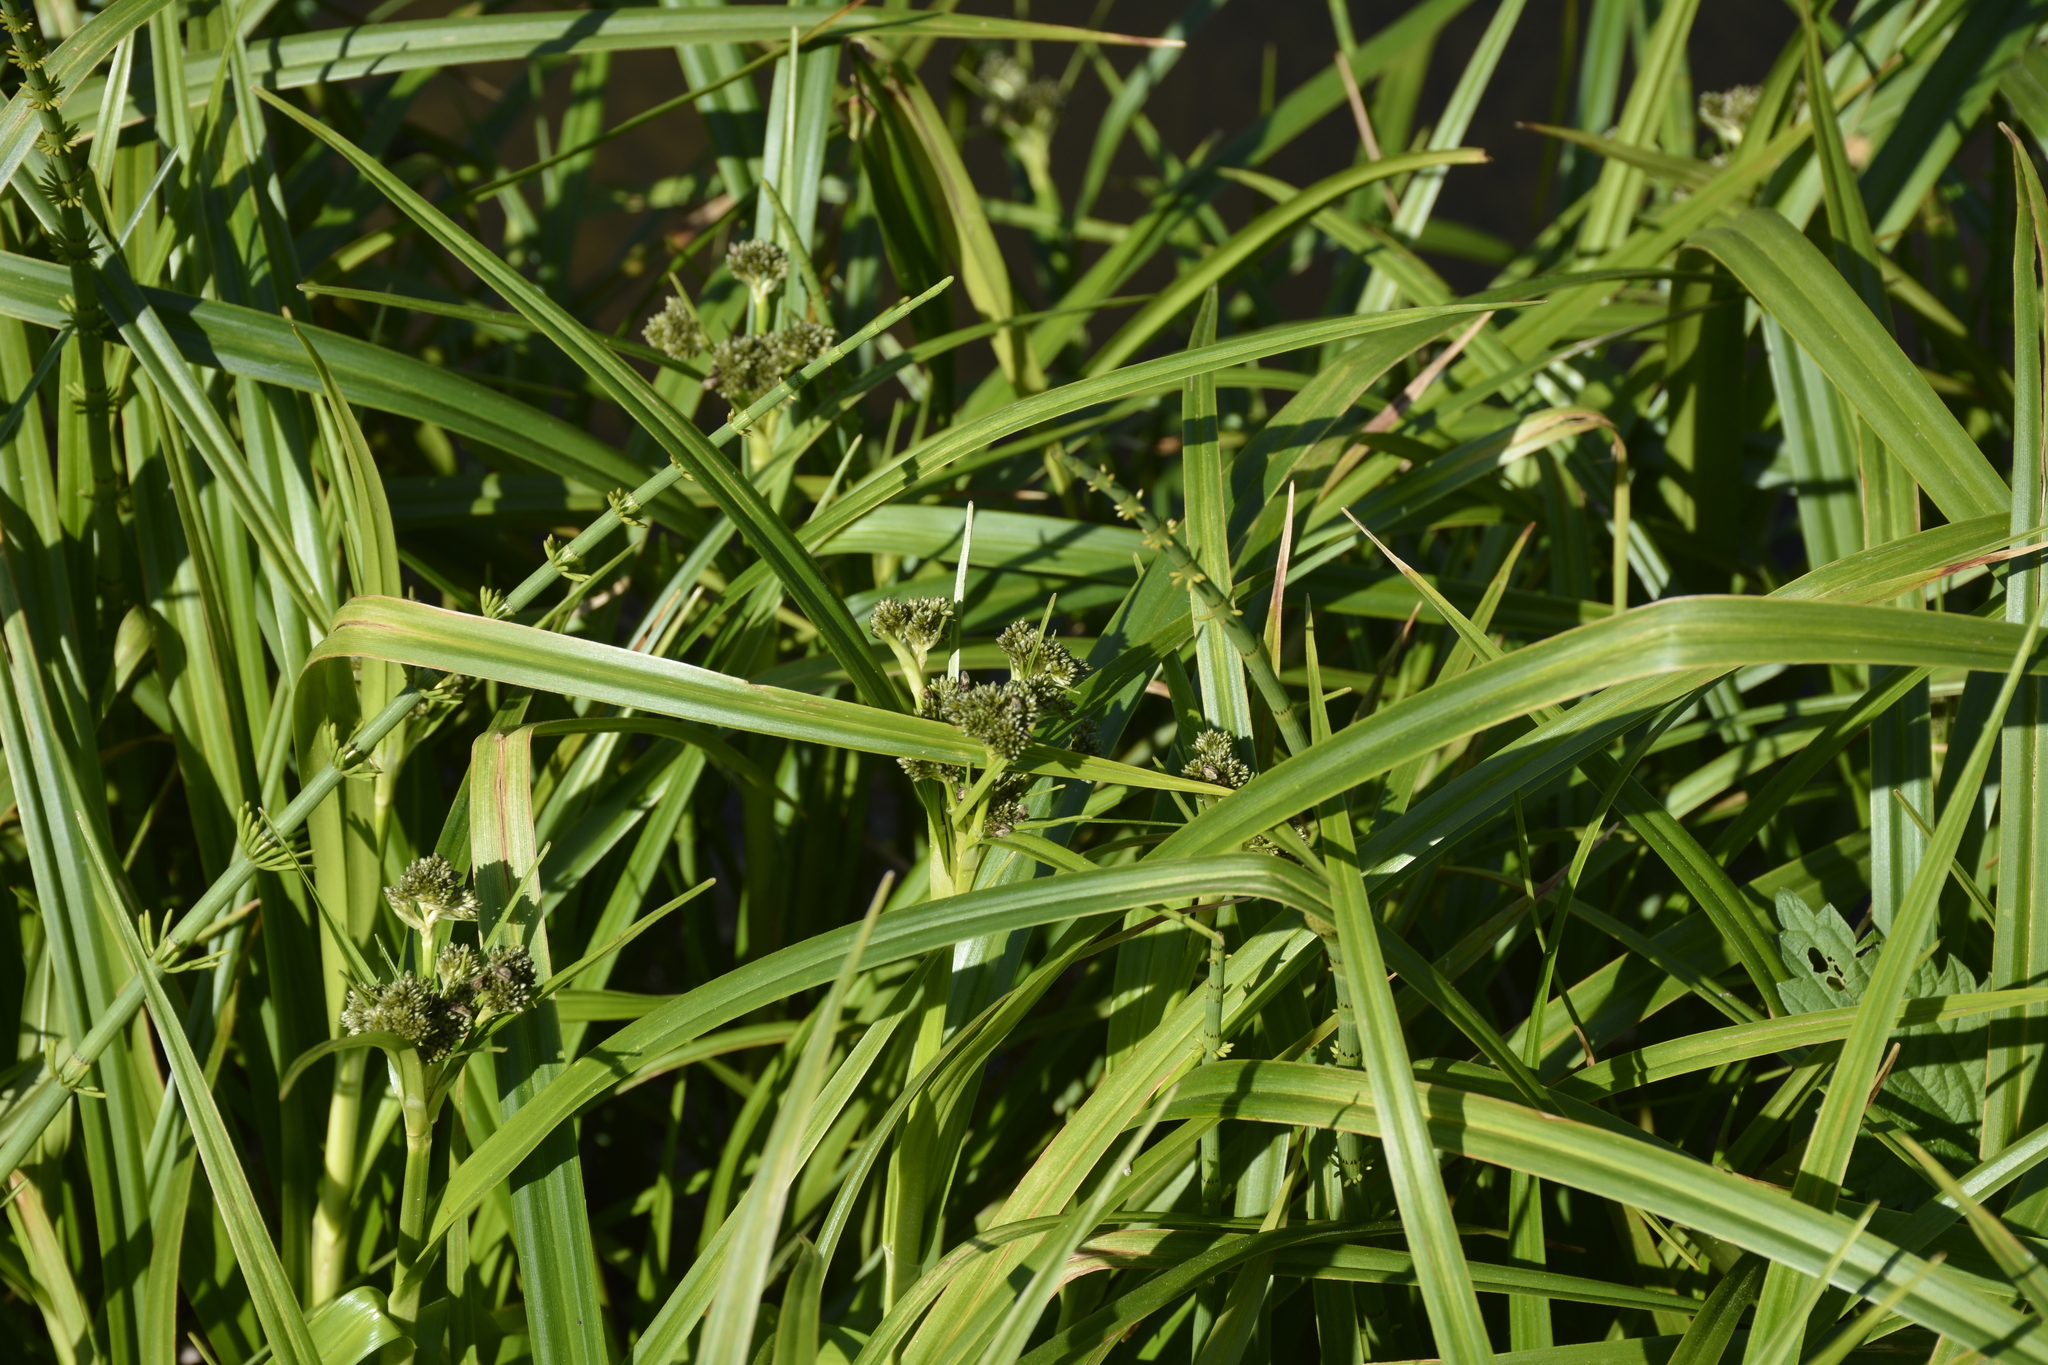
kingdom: Plantae
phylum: Tracheophyta
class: Liliopsida
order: Poales
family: Cyperaceae
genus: Scirpus
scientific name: Scirpus sylvaticus
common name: Wood club-rush
